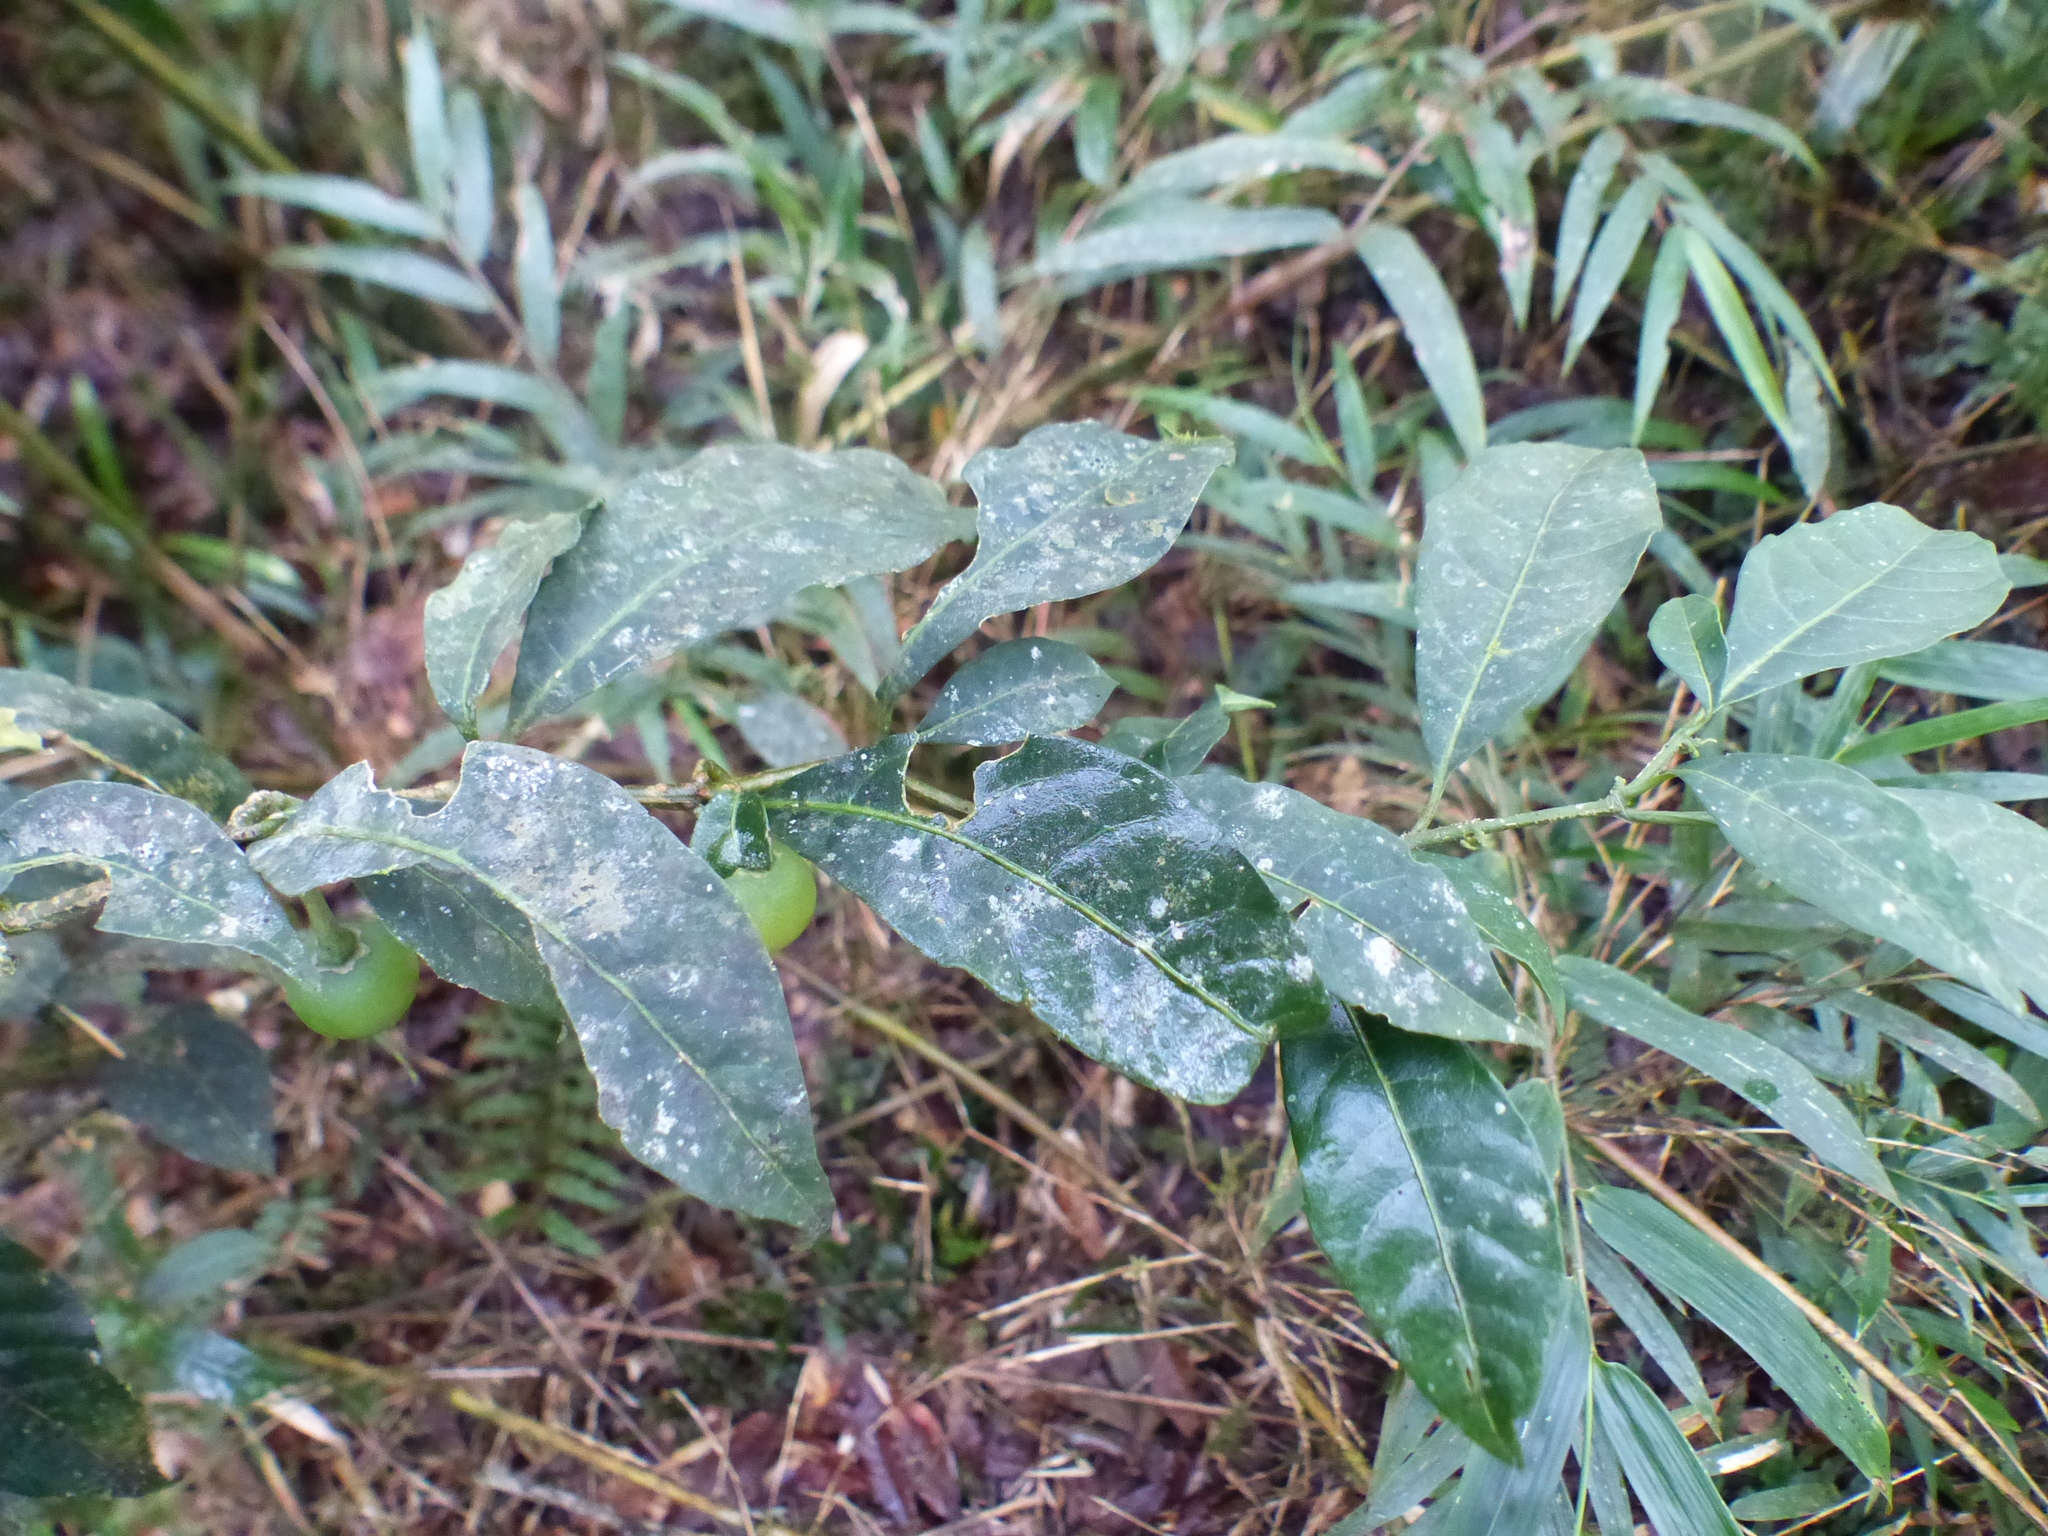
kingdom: Plantae
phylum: Tracheophyta
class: Magnoliopsida
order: Solanales
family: Solanaceae
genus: Solanum
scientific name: Solanum cornifolium
